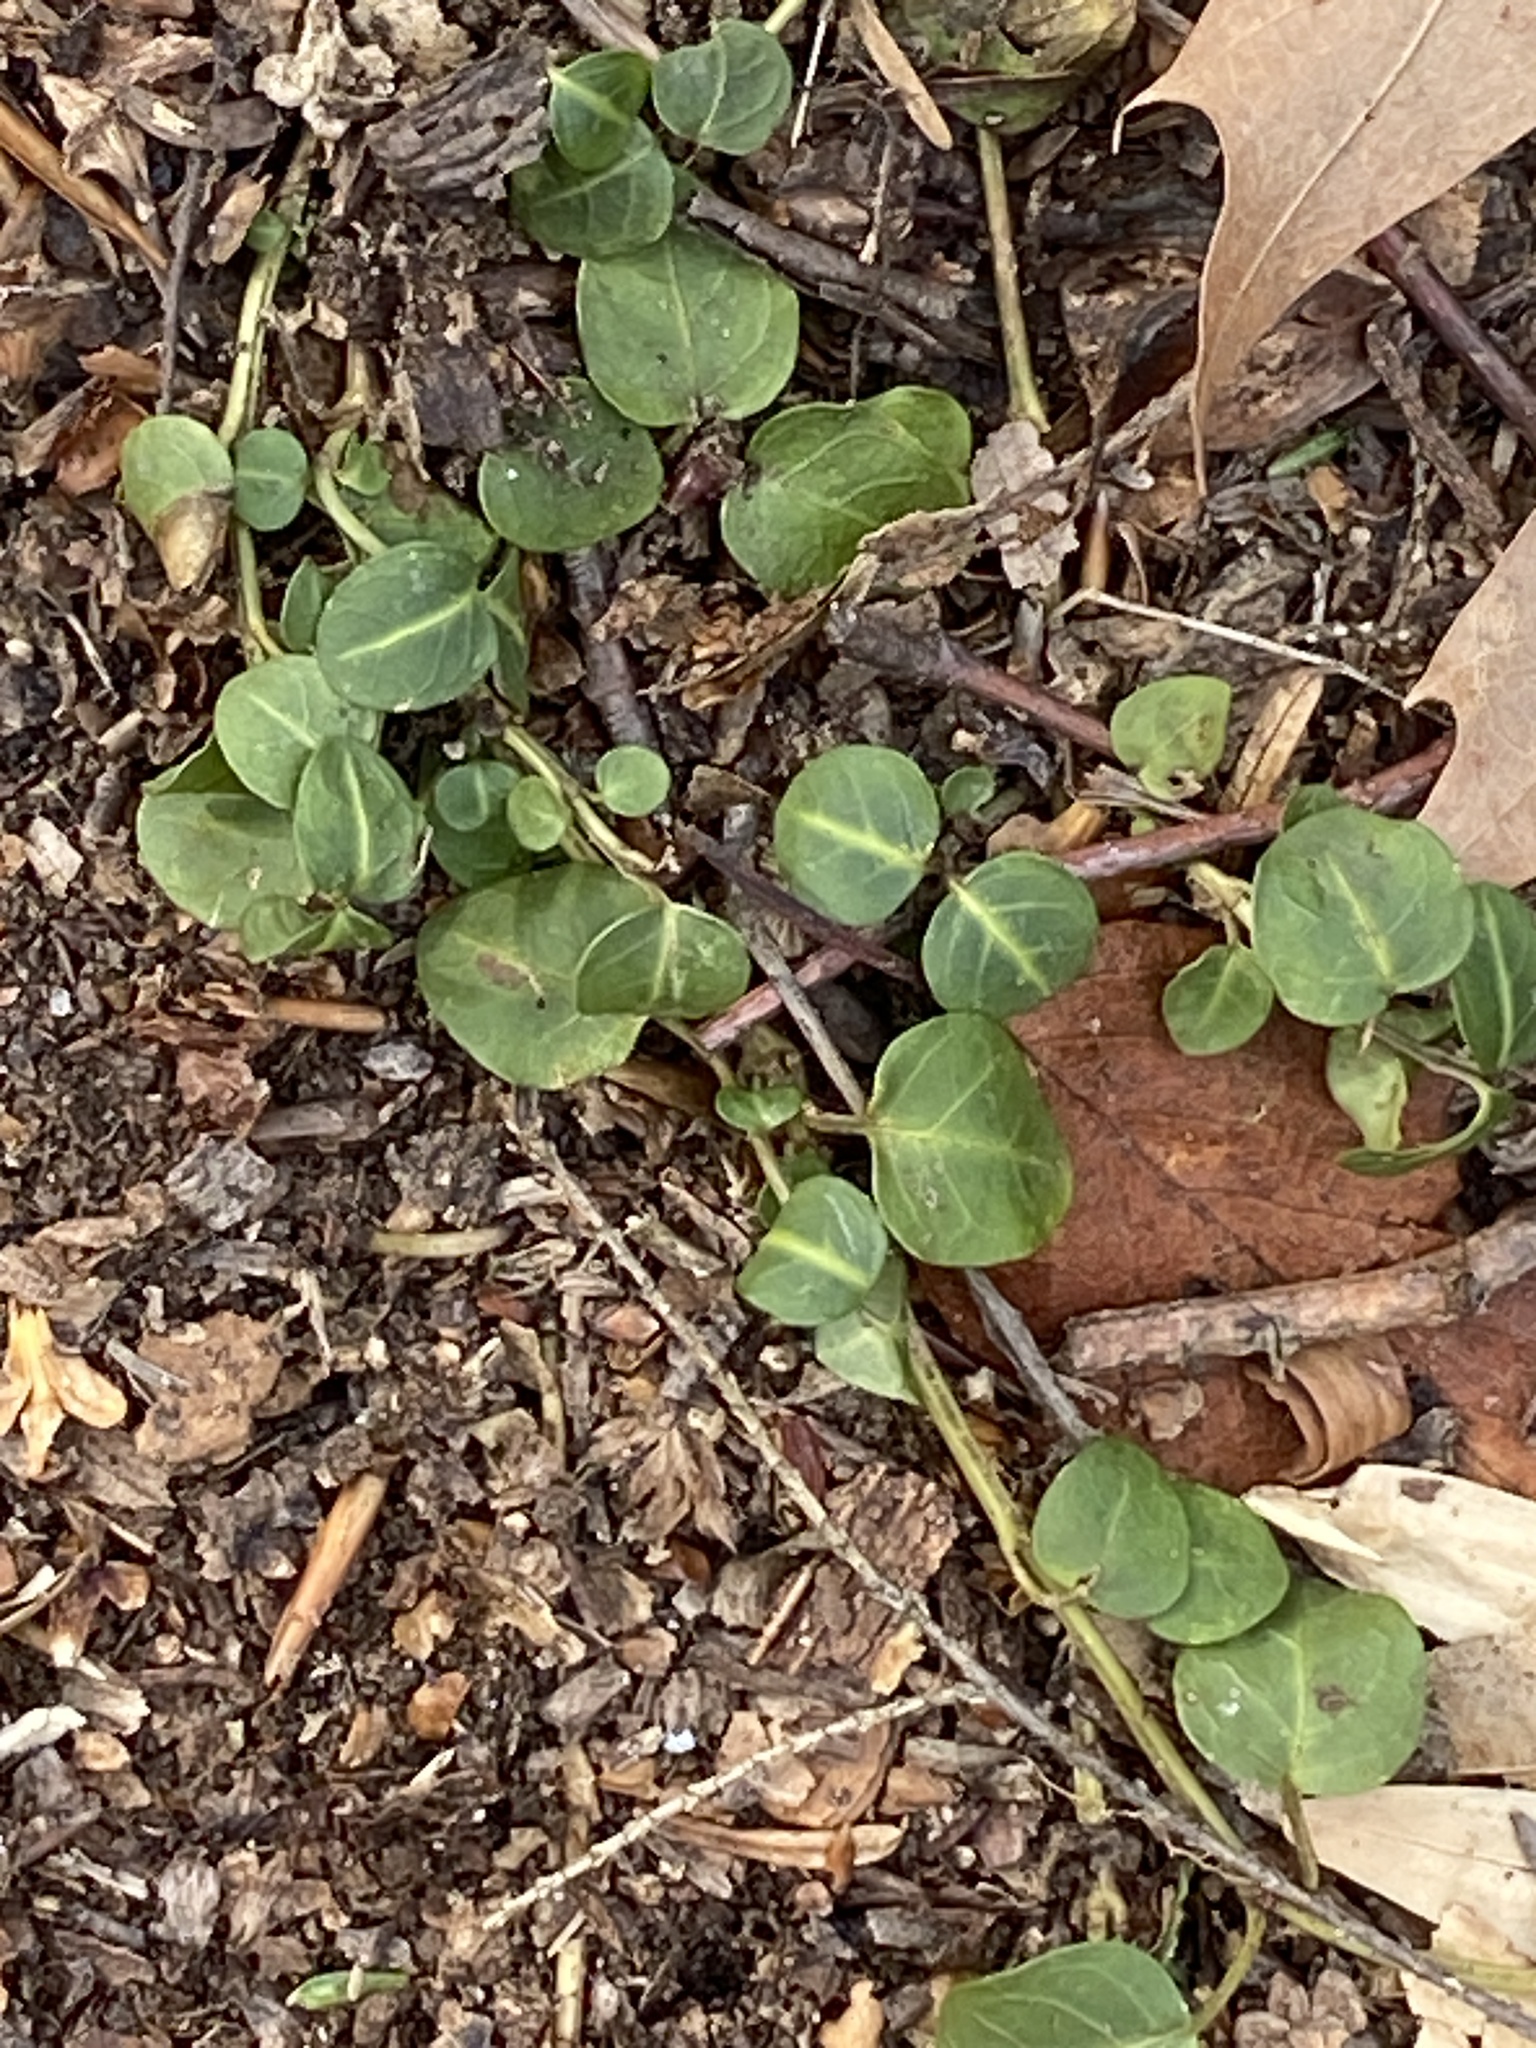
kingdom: Plantae
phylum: Tracheophyta
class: Magnoliopsida
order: Gentianales
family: Rubiaceae
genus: Mitchella
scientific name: Mitchella repens
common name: Partridge-berry
